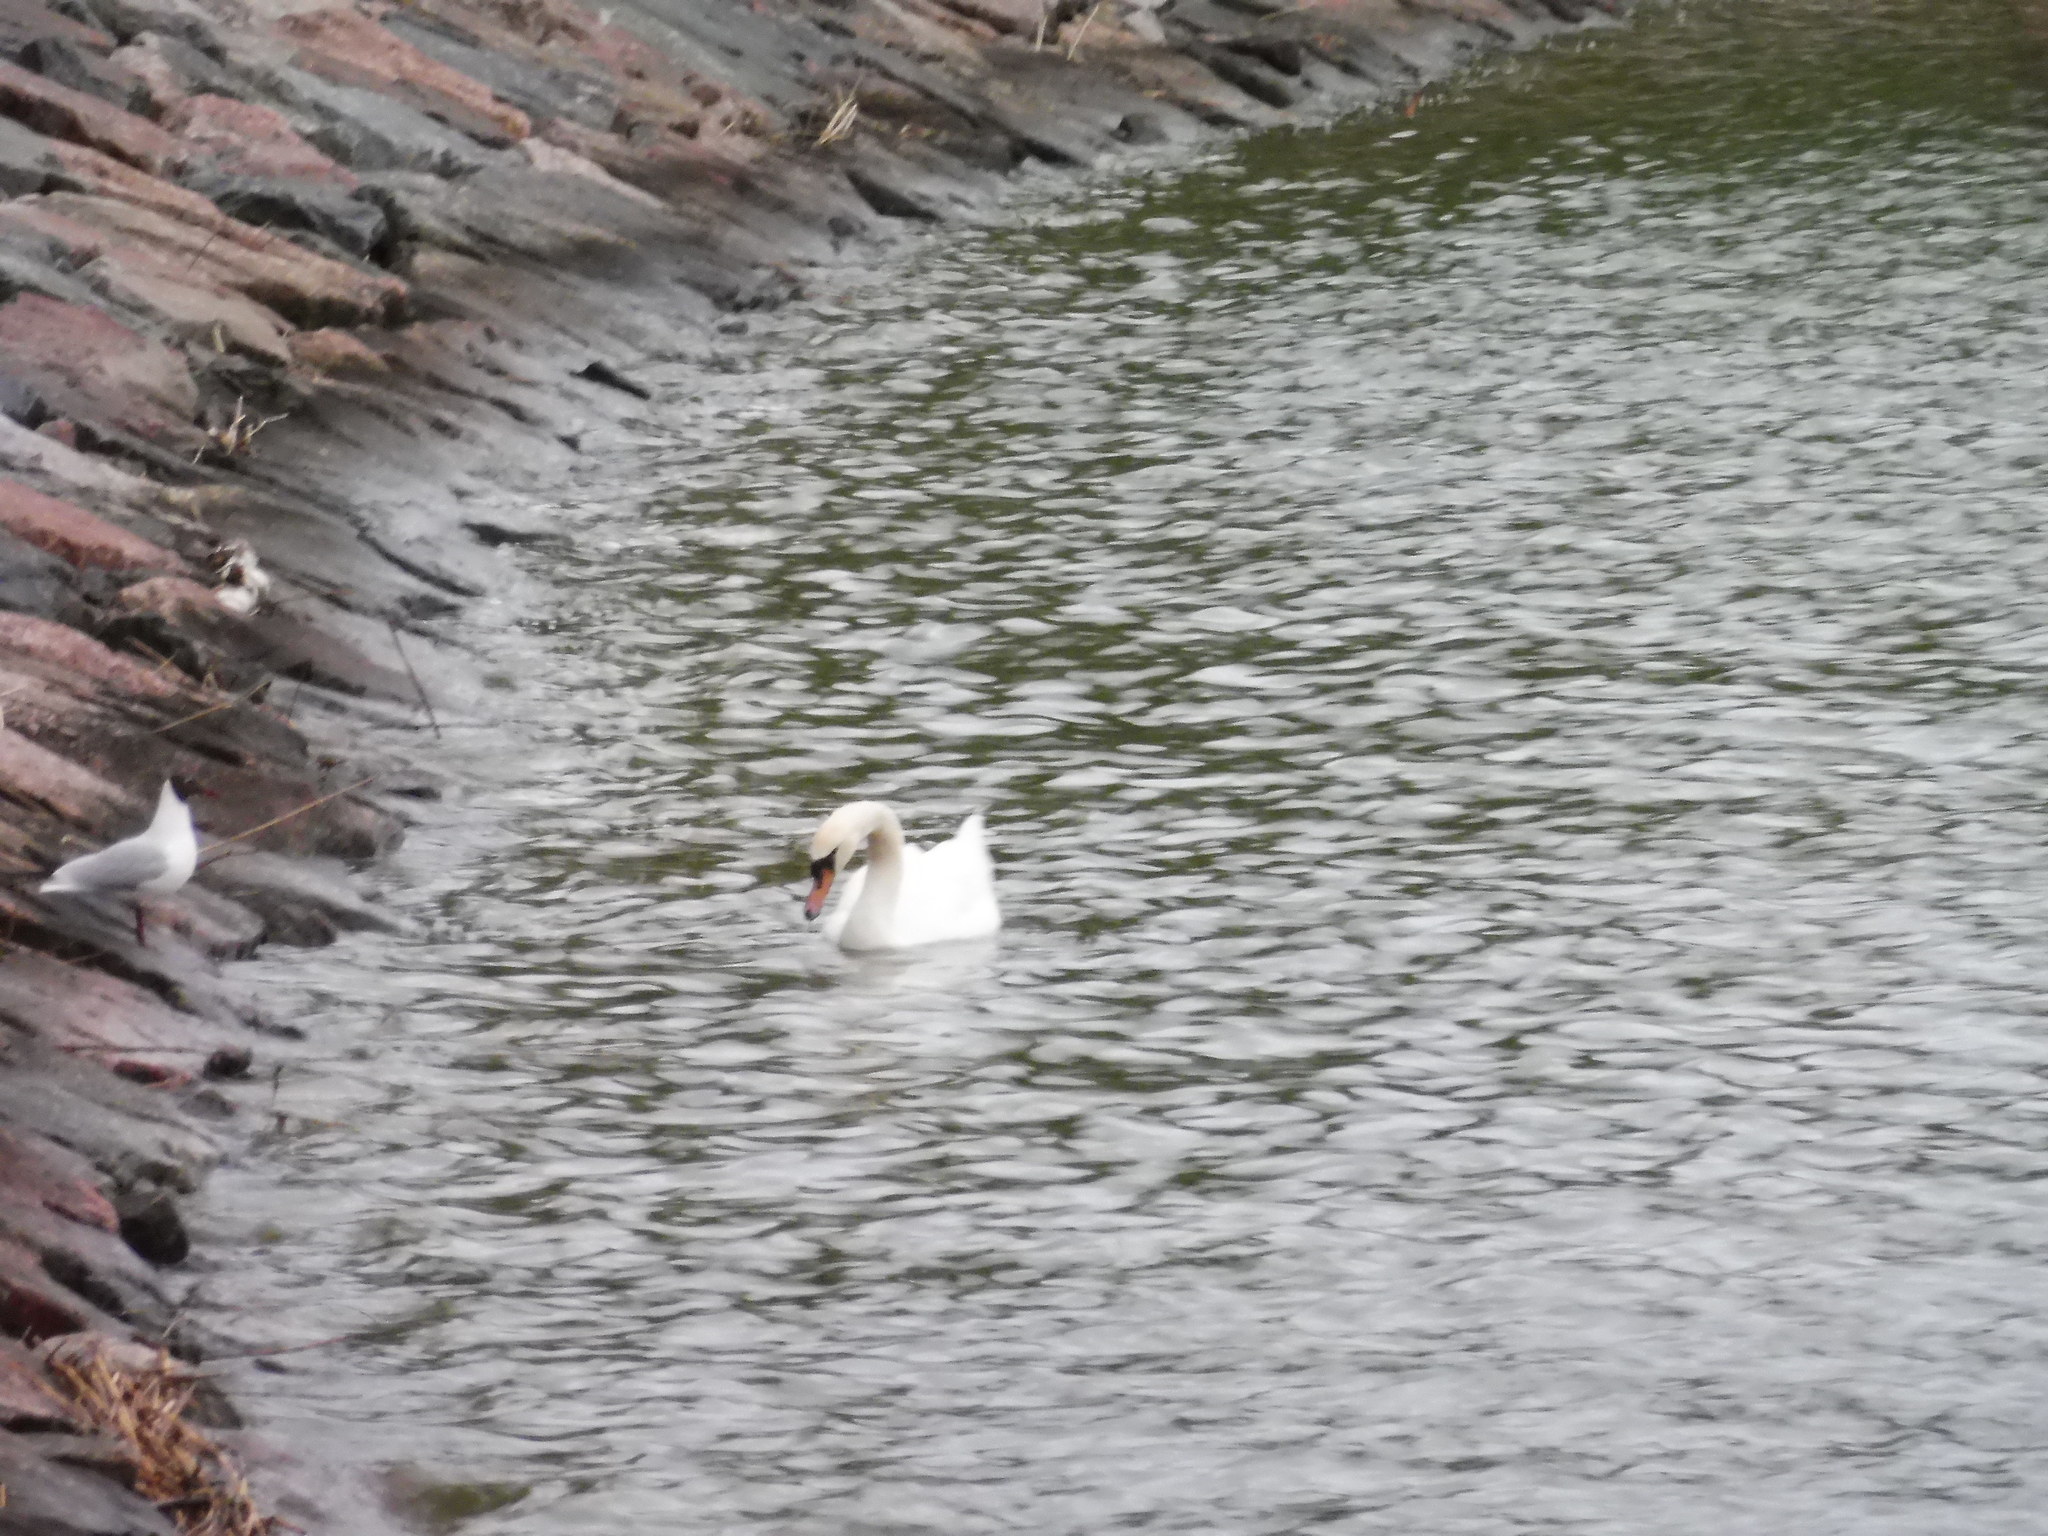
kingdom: Animalia
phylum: Chordata
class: Aves
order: Anseriformes
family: Anatidae
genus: Cygnus
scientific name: Cygnus olor
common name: Mute swan
